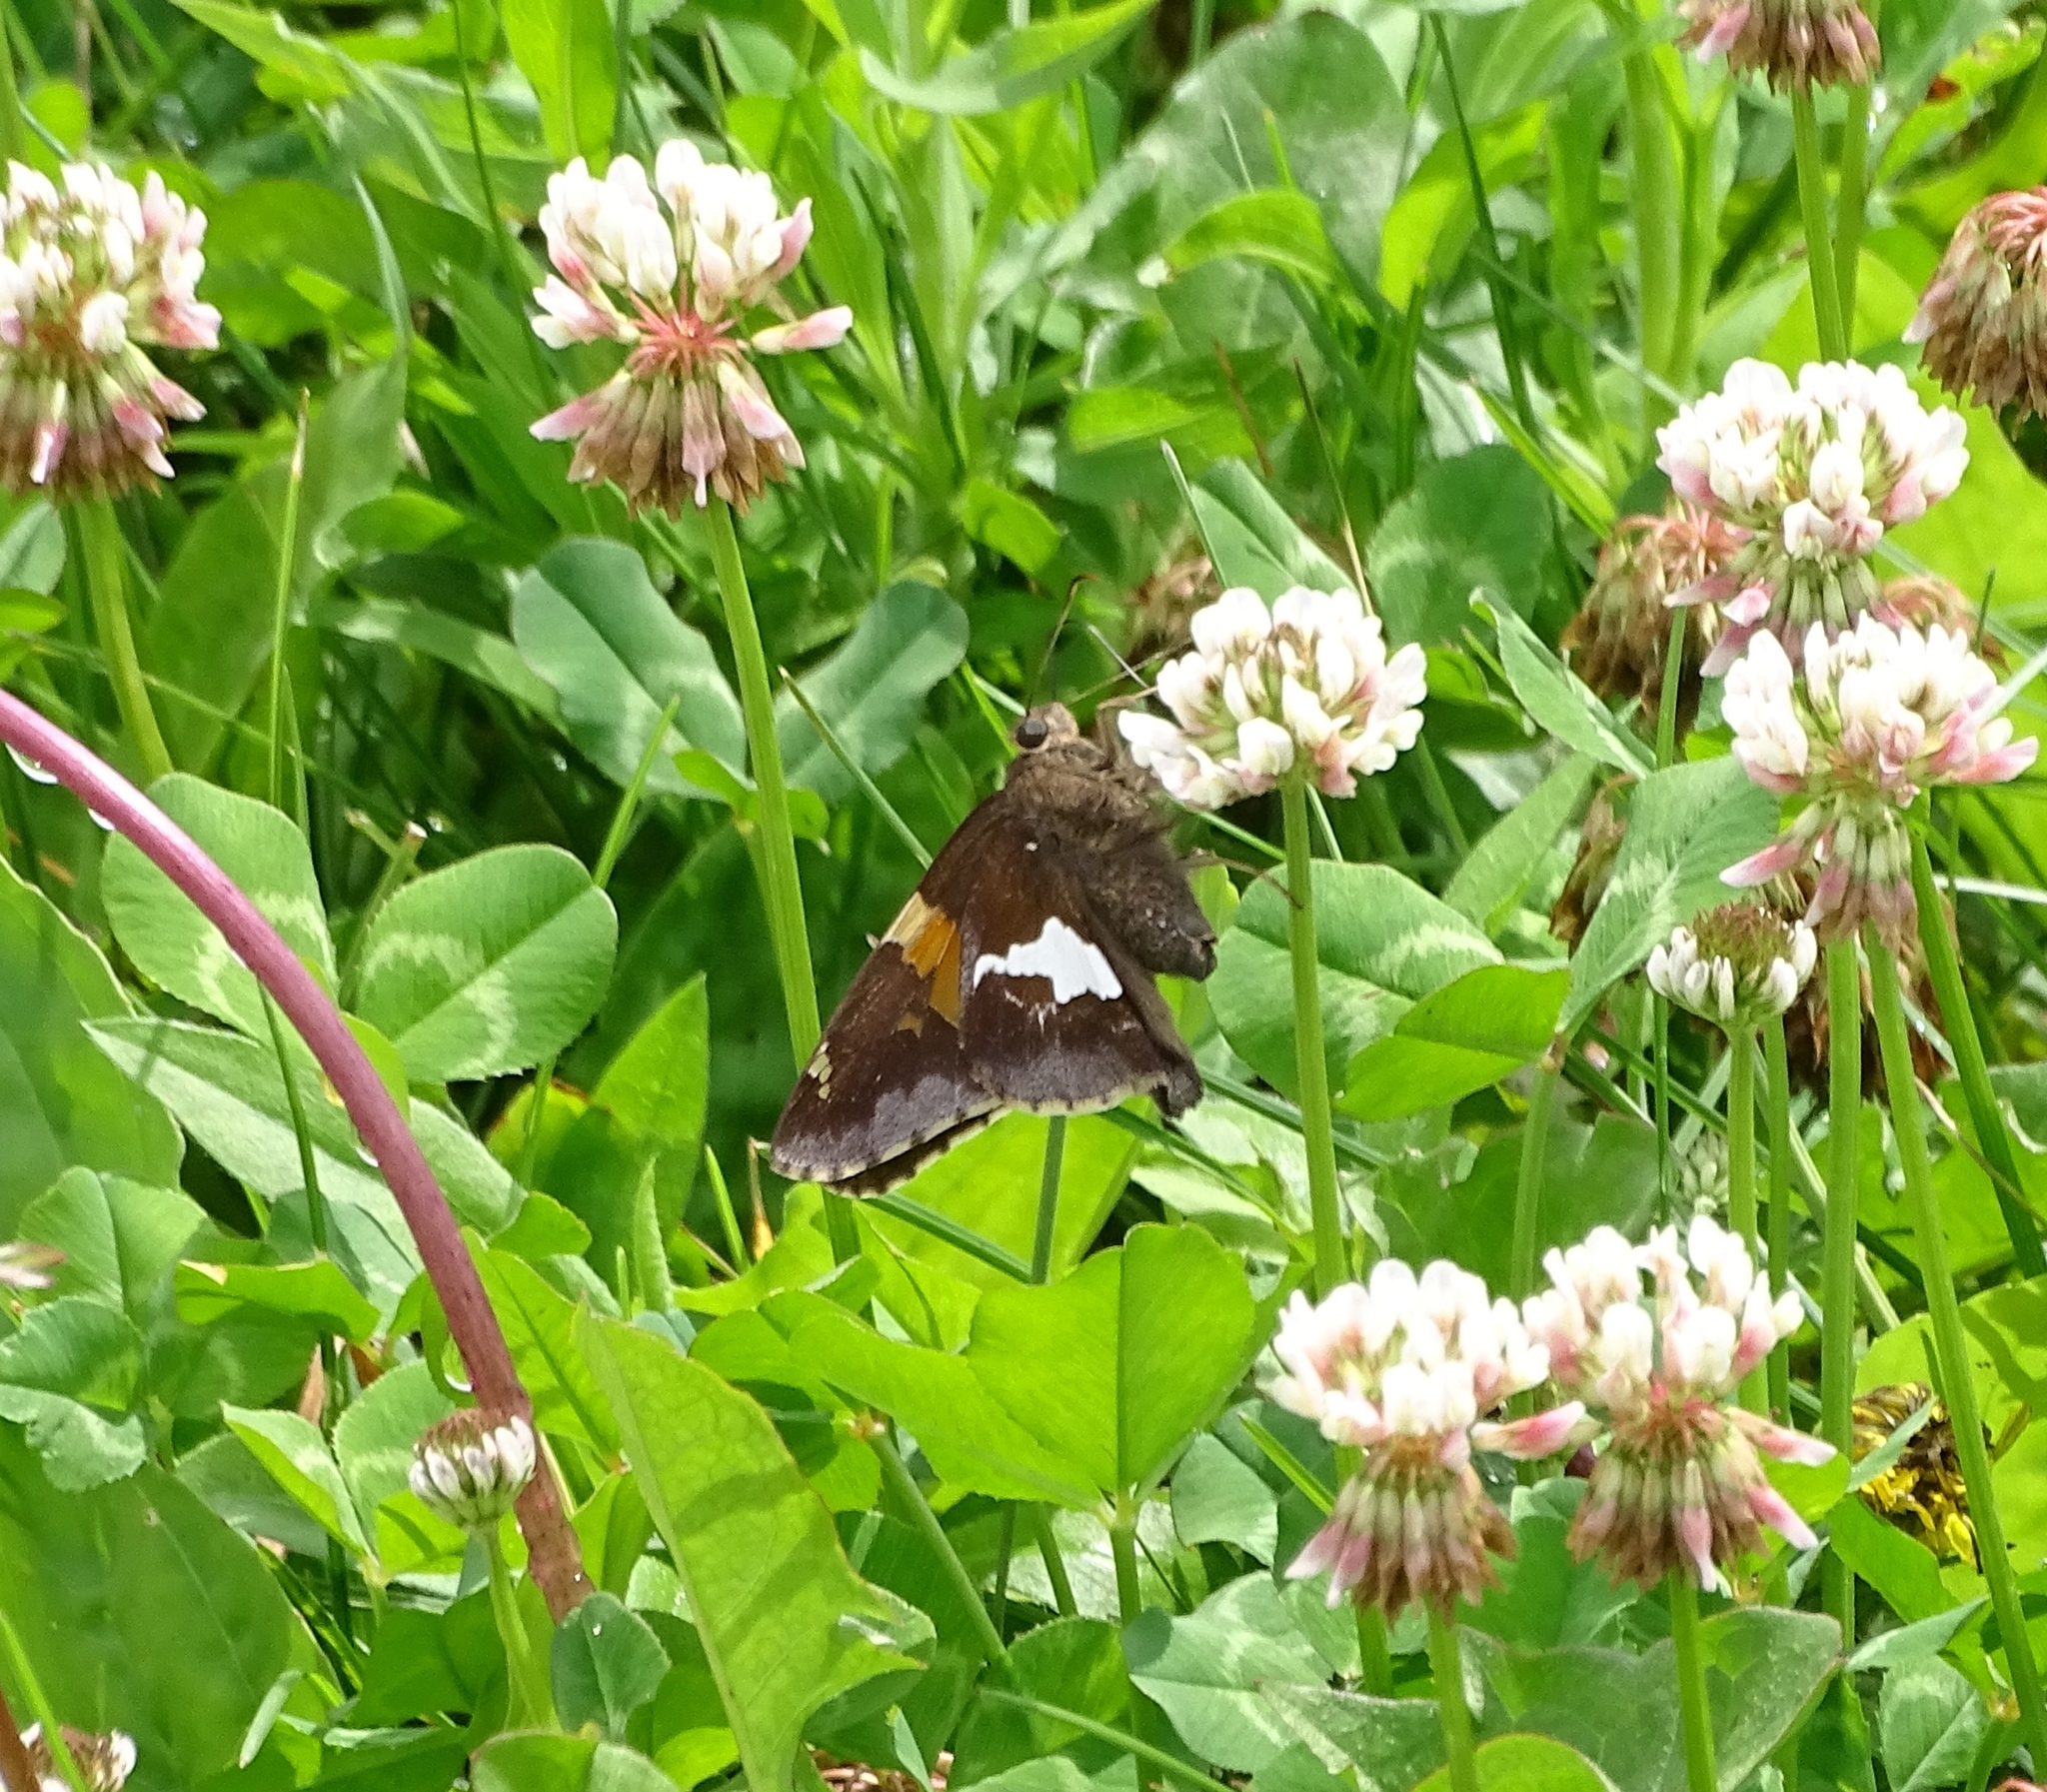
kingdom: Animalia
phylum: Arthropoda
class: Insecta
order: Lepidoptera
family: Hesperiidae
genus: Epargyreus
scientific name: Epargyreus clarus
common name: Silver-spotted skipper
